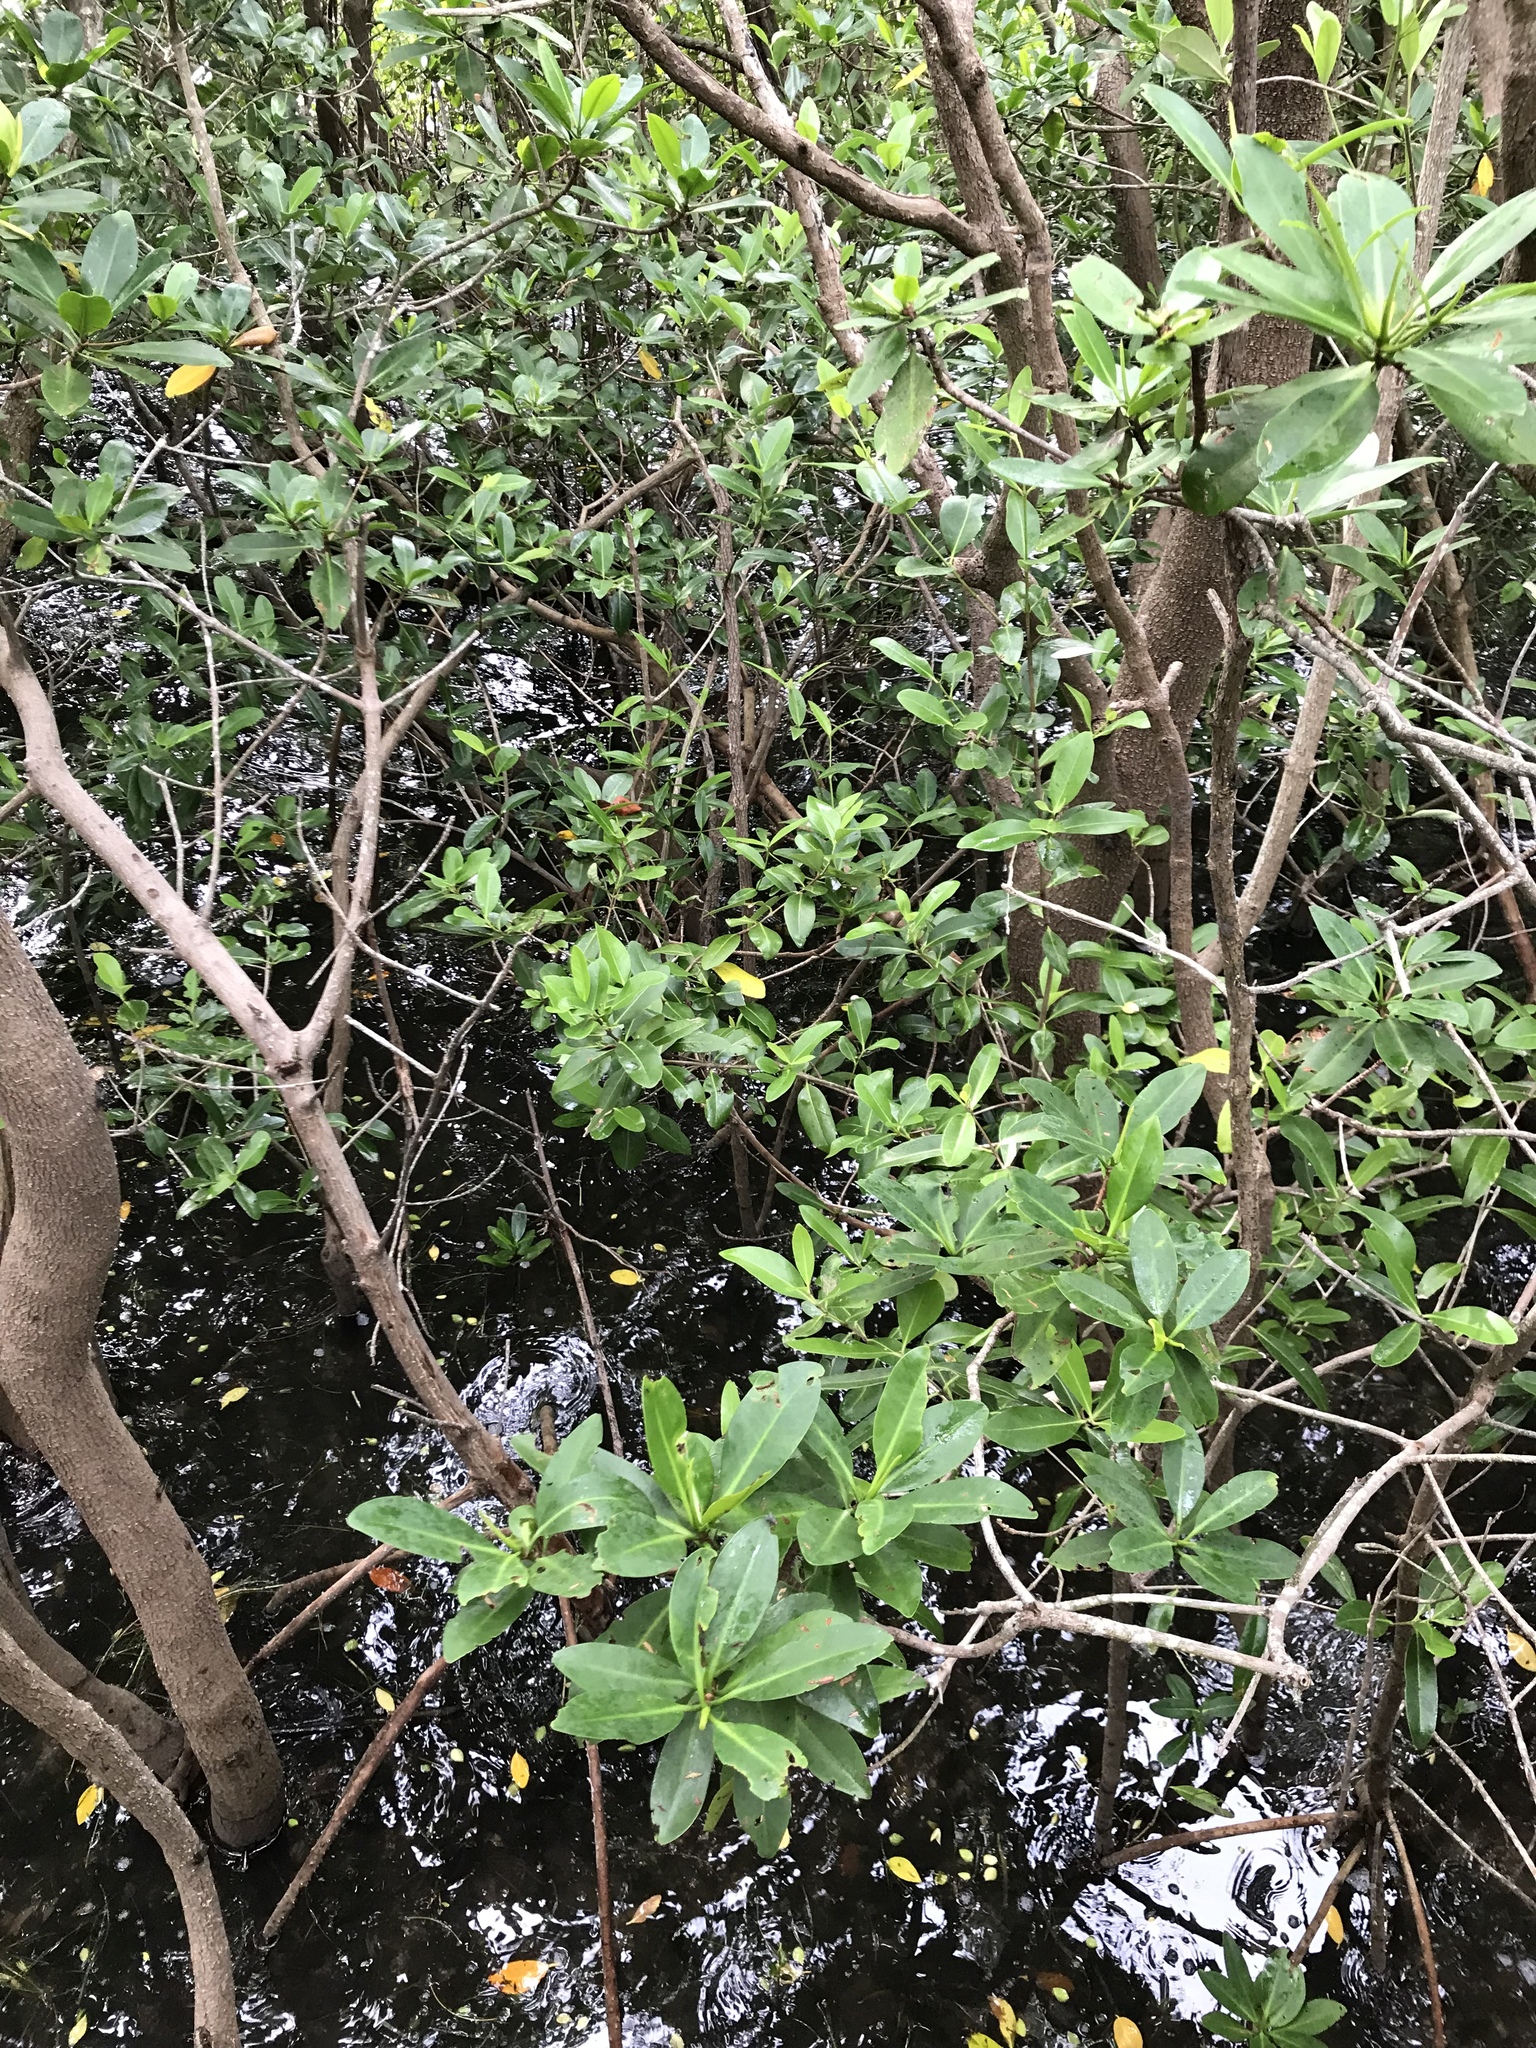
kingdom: Plantae
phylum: Tracheophyta
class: Magnoliopsida
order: Malpighiales
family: Rhizophoraceae
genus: Rhizophora
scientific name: Rhizophora mangle
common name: Red mangrove
